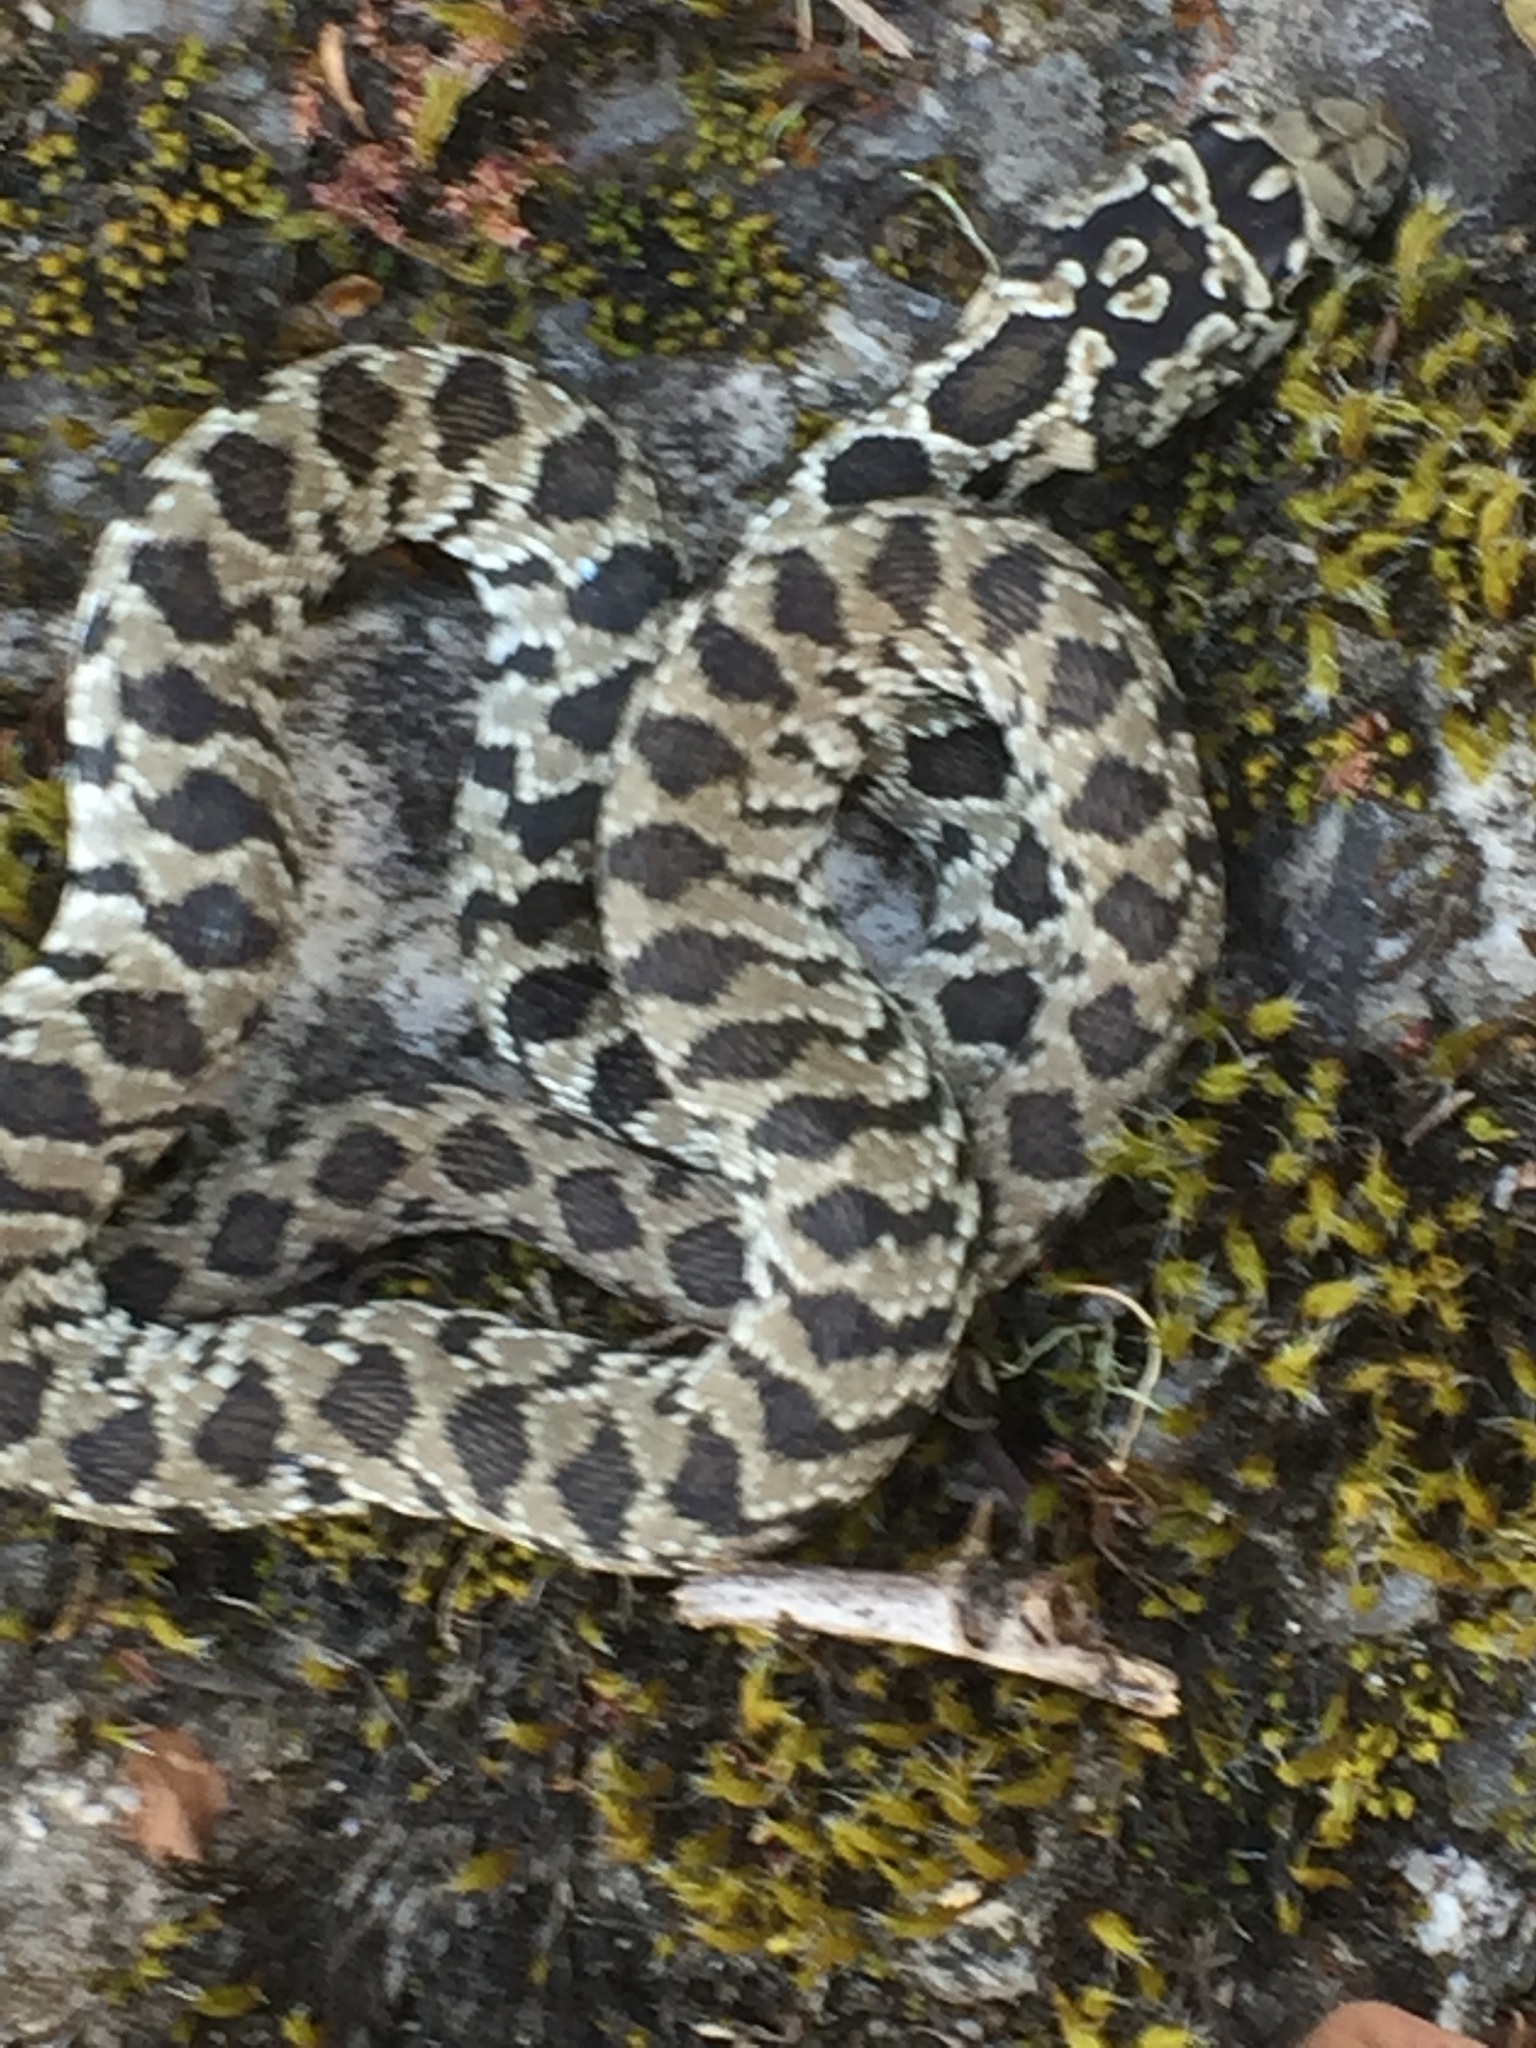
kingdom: Animalia
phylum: Chordata
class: Squamata
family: Colubridae
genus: Hemorrhois
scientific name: Hemorrhois hippocrepis
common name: Horseshoe whip snake
